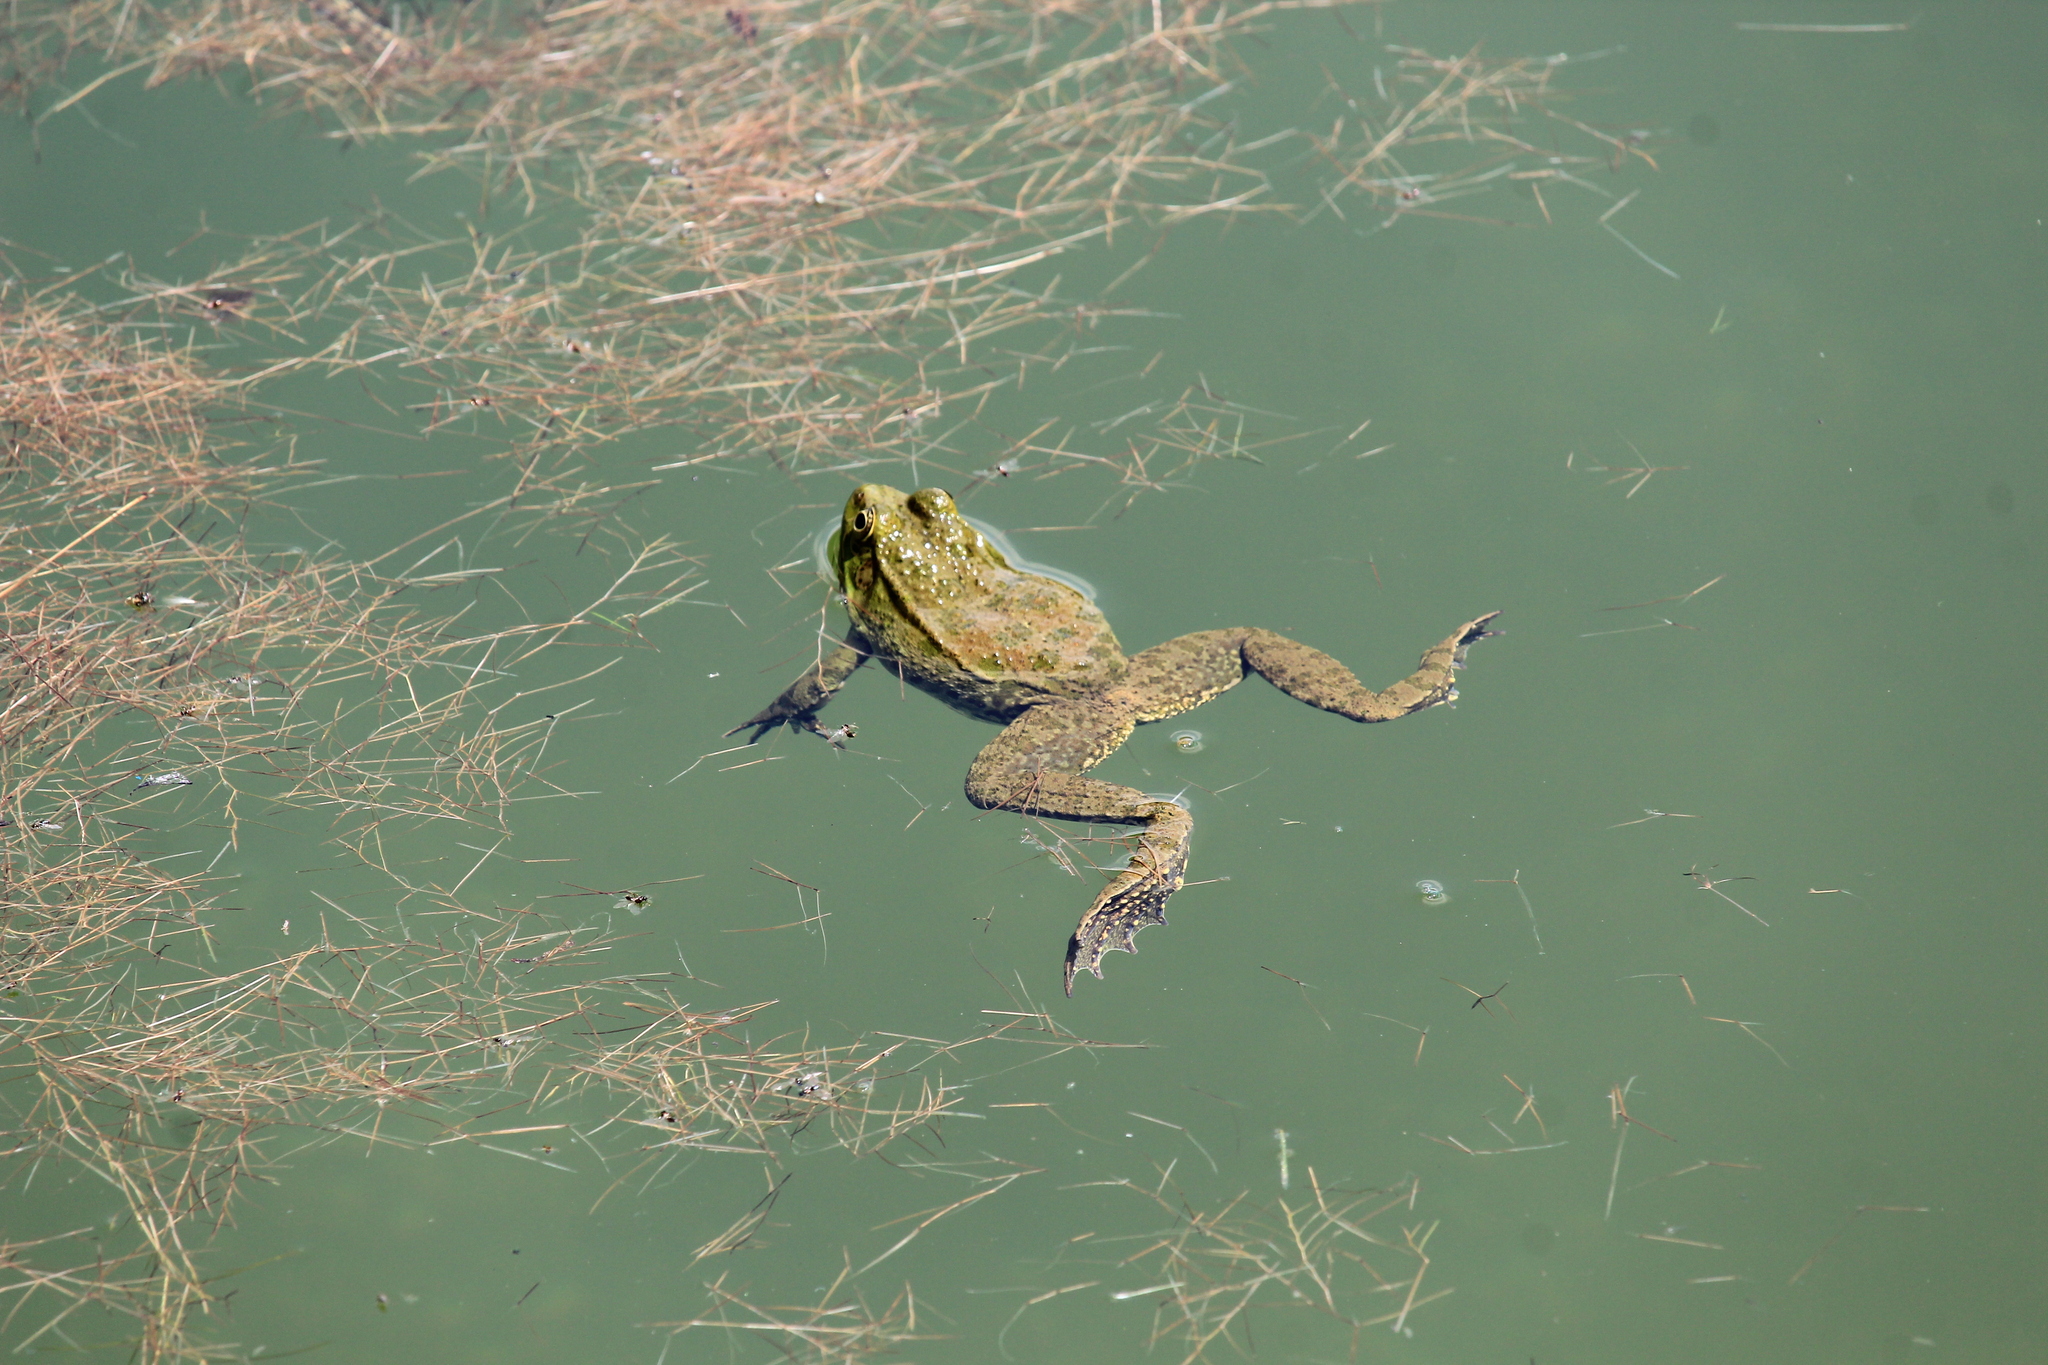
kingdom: Animalia
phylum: Chordata
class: Amphibia
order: Anura
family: Ranidae
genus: Pelophylax
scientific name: Pelophylax ridibundus
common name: Marsh frog
